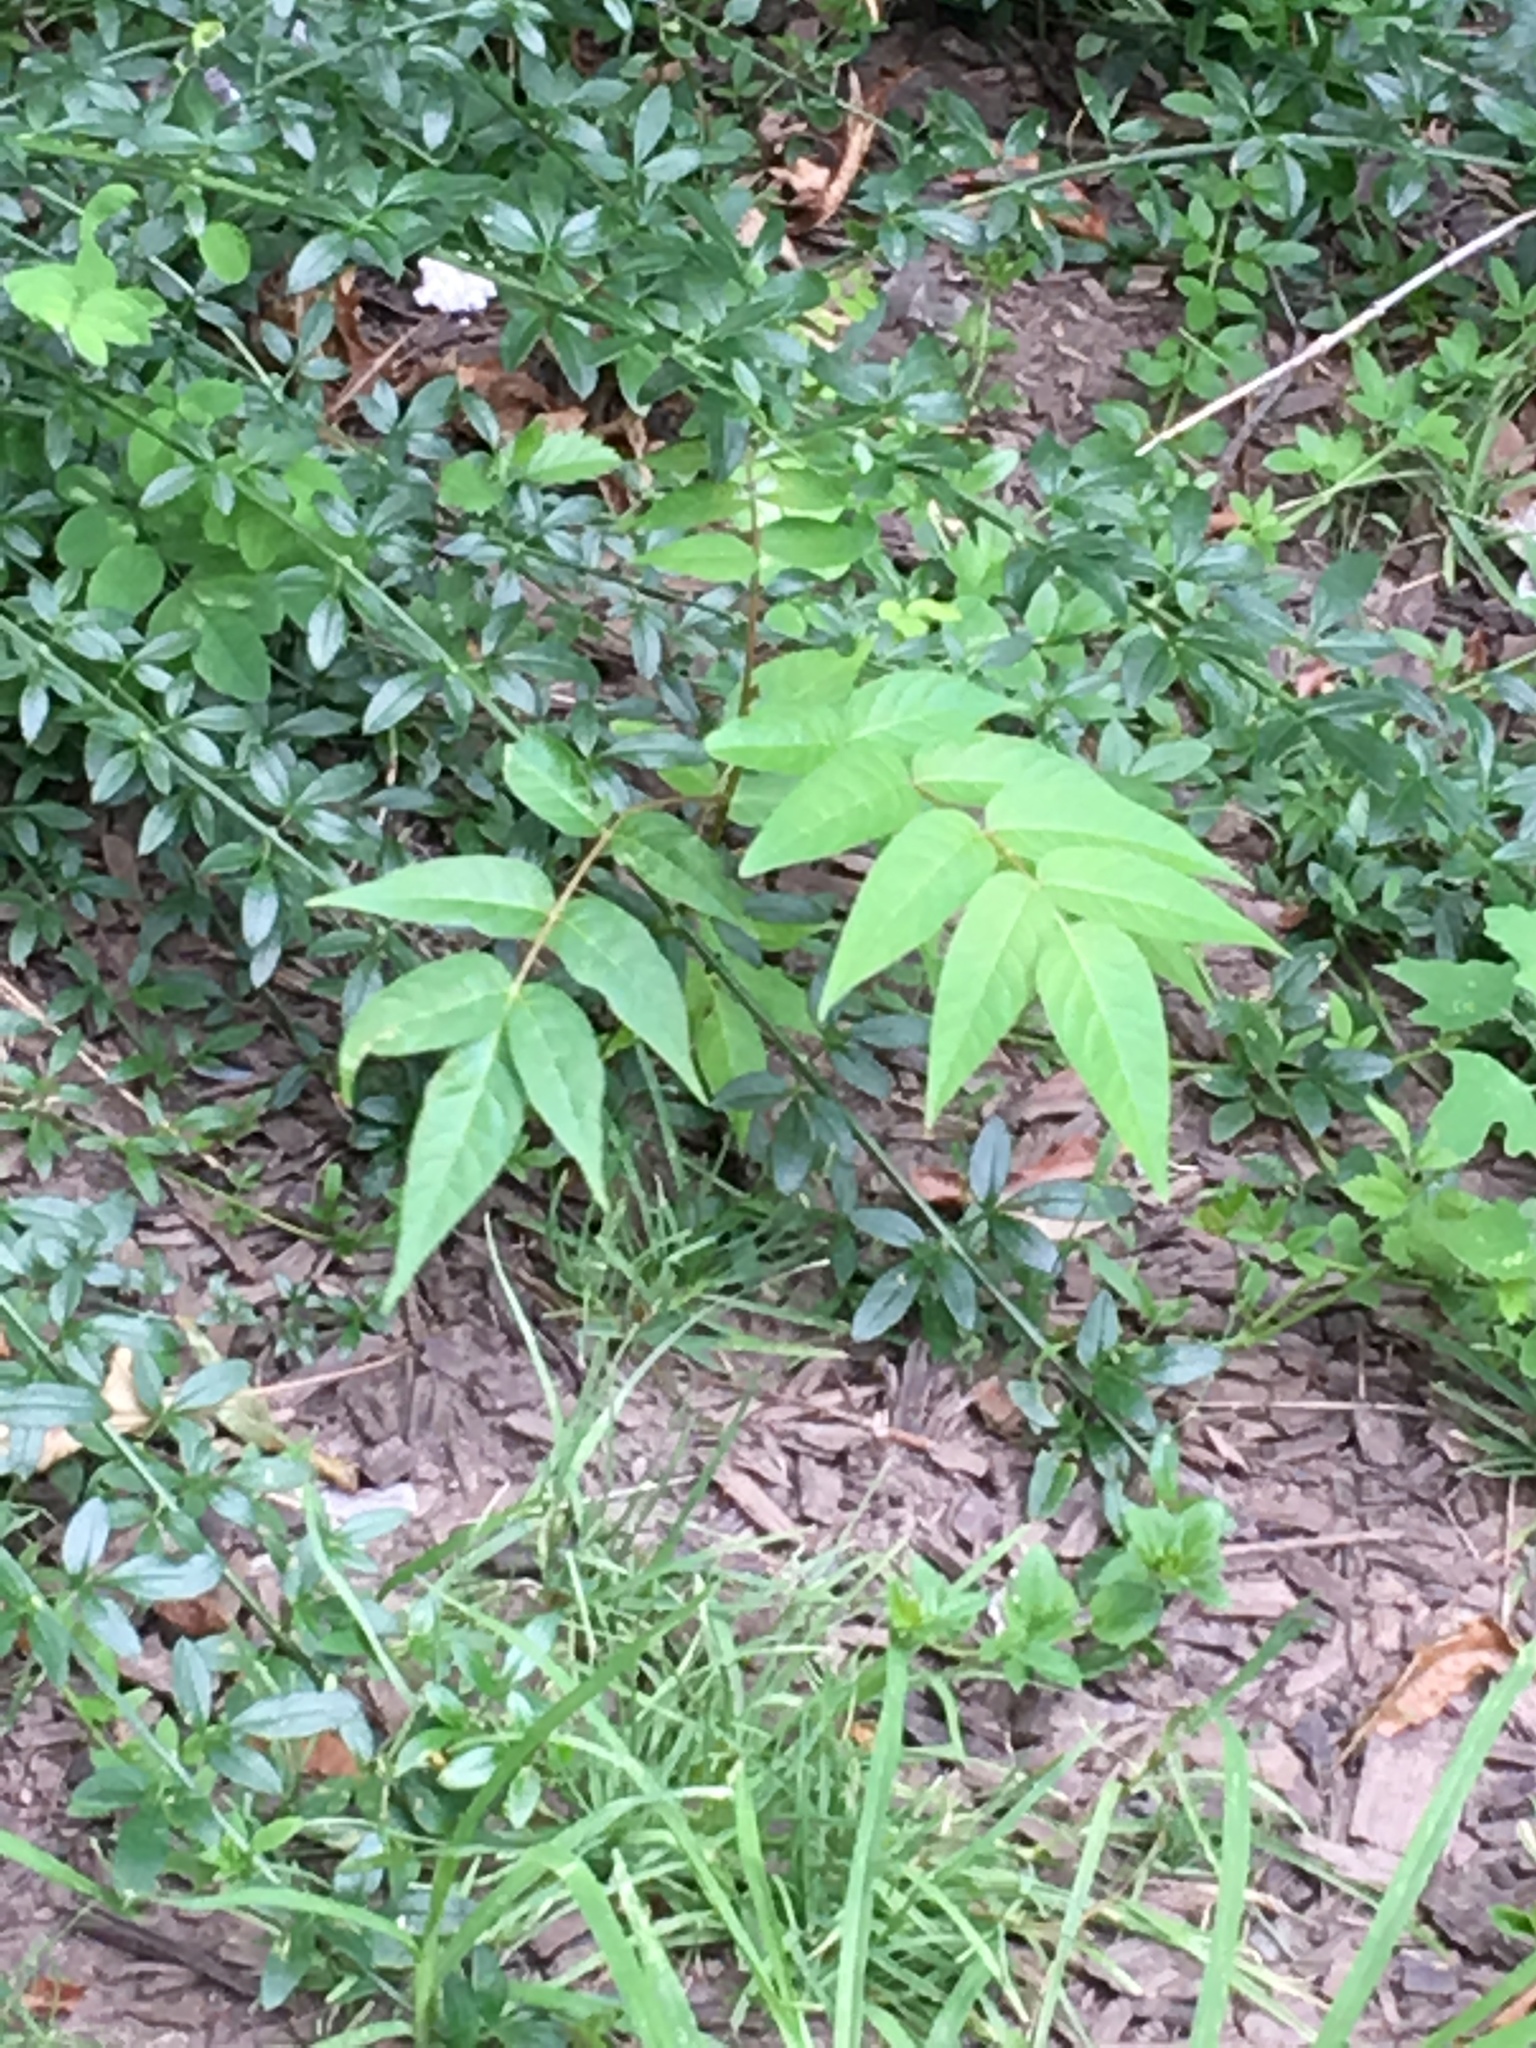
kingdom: Plantae
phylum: Tracheophyta
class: Magnoliopsida
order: Sapindales
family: Simaroubaceae
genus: Ailanthus
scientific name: Ailanthus altissima
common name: Tree-of-heaven
